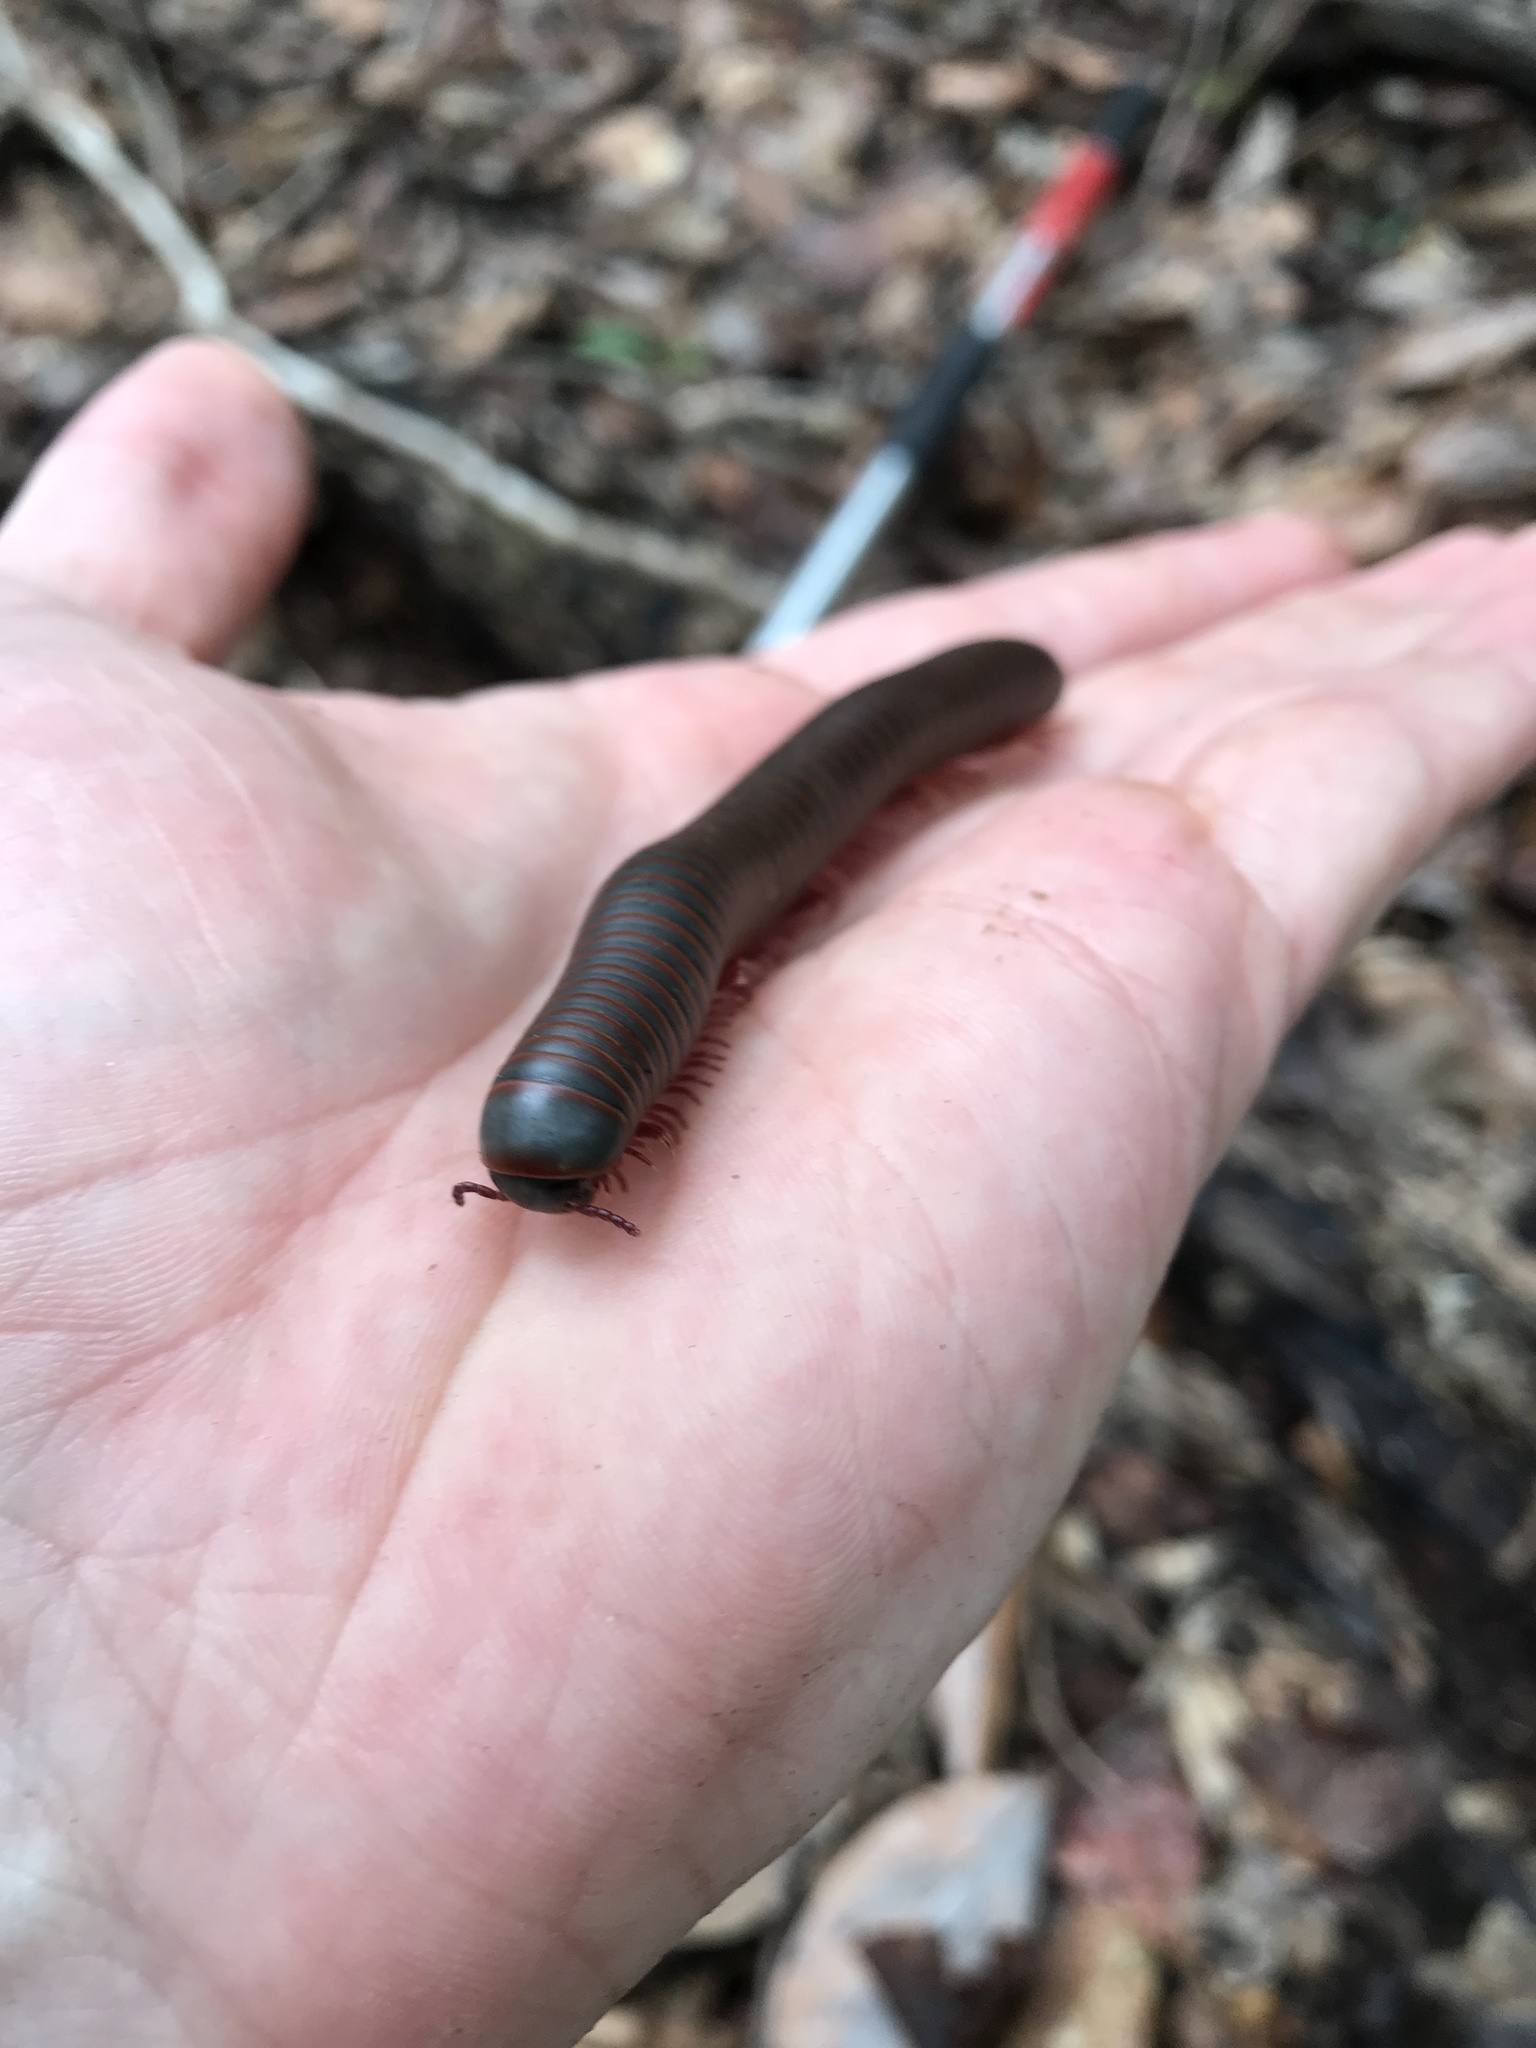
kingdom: Animalia
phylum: Arthropoda
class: Diplopoda
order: Spirobolida
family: Spirobolidae
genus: Narceus
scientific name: Narceus
